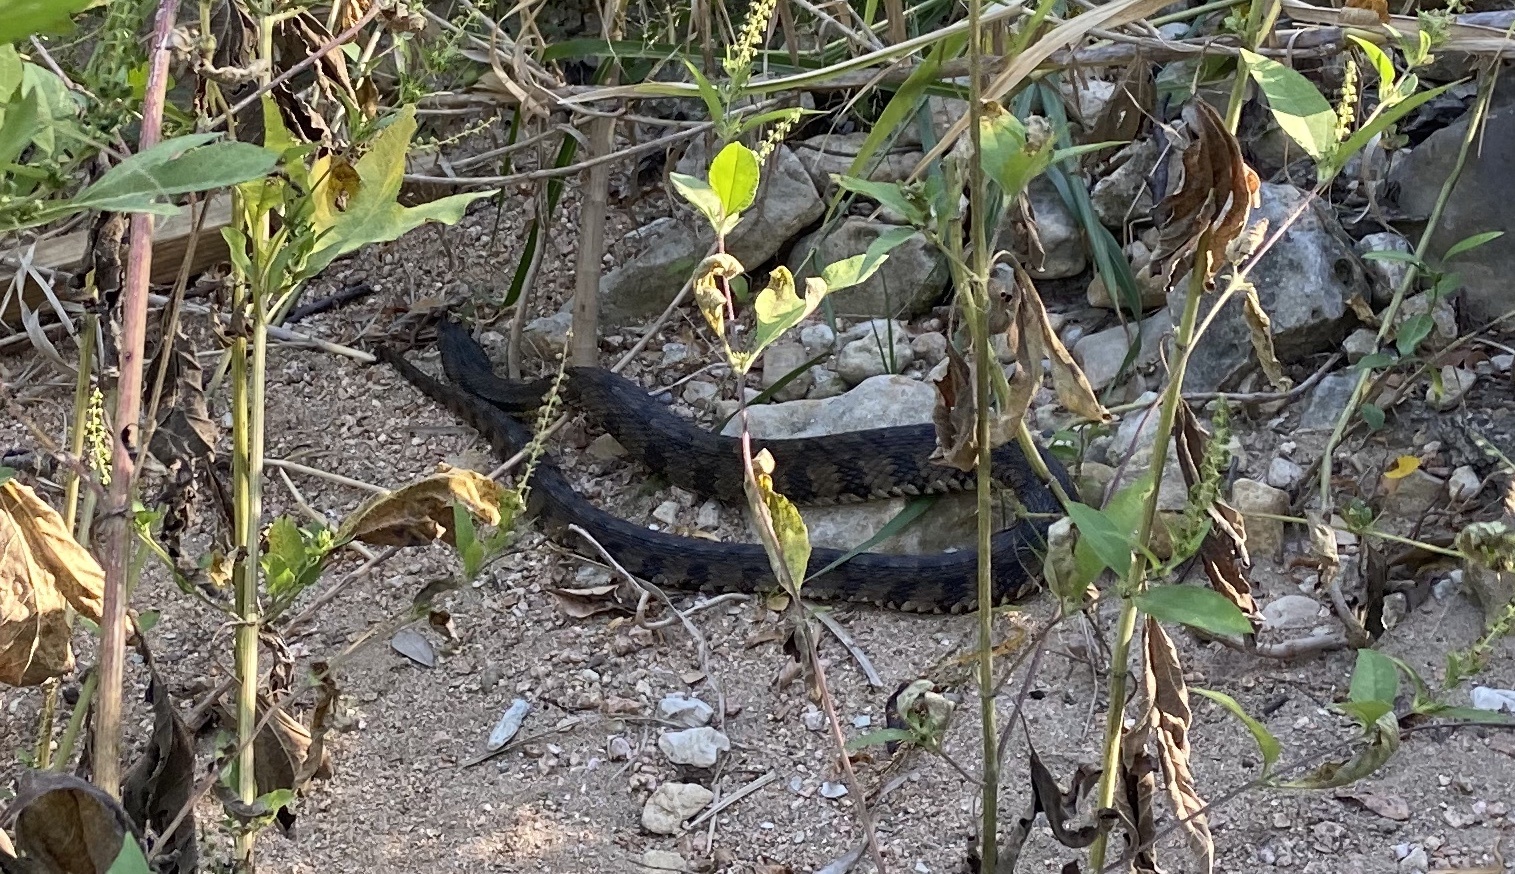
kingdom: Animalia
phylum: Chordata
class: Squamata
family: Colubridae
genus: Nerodia
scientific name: Nerodia rhombifer
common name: Diamondback water snake
